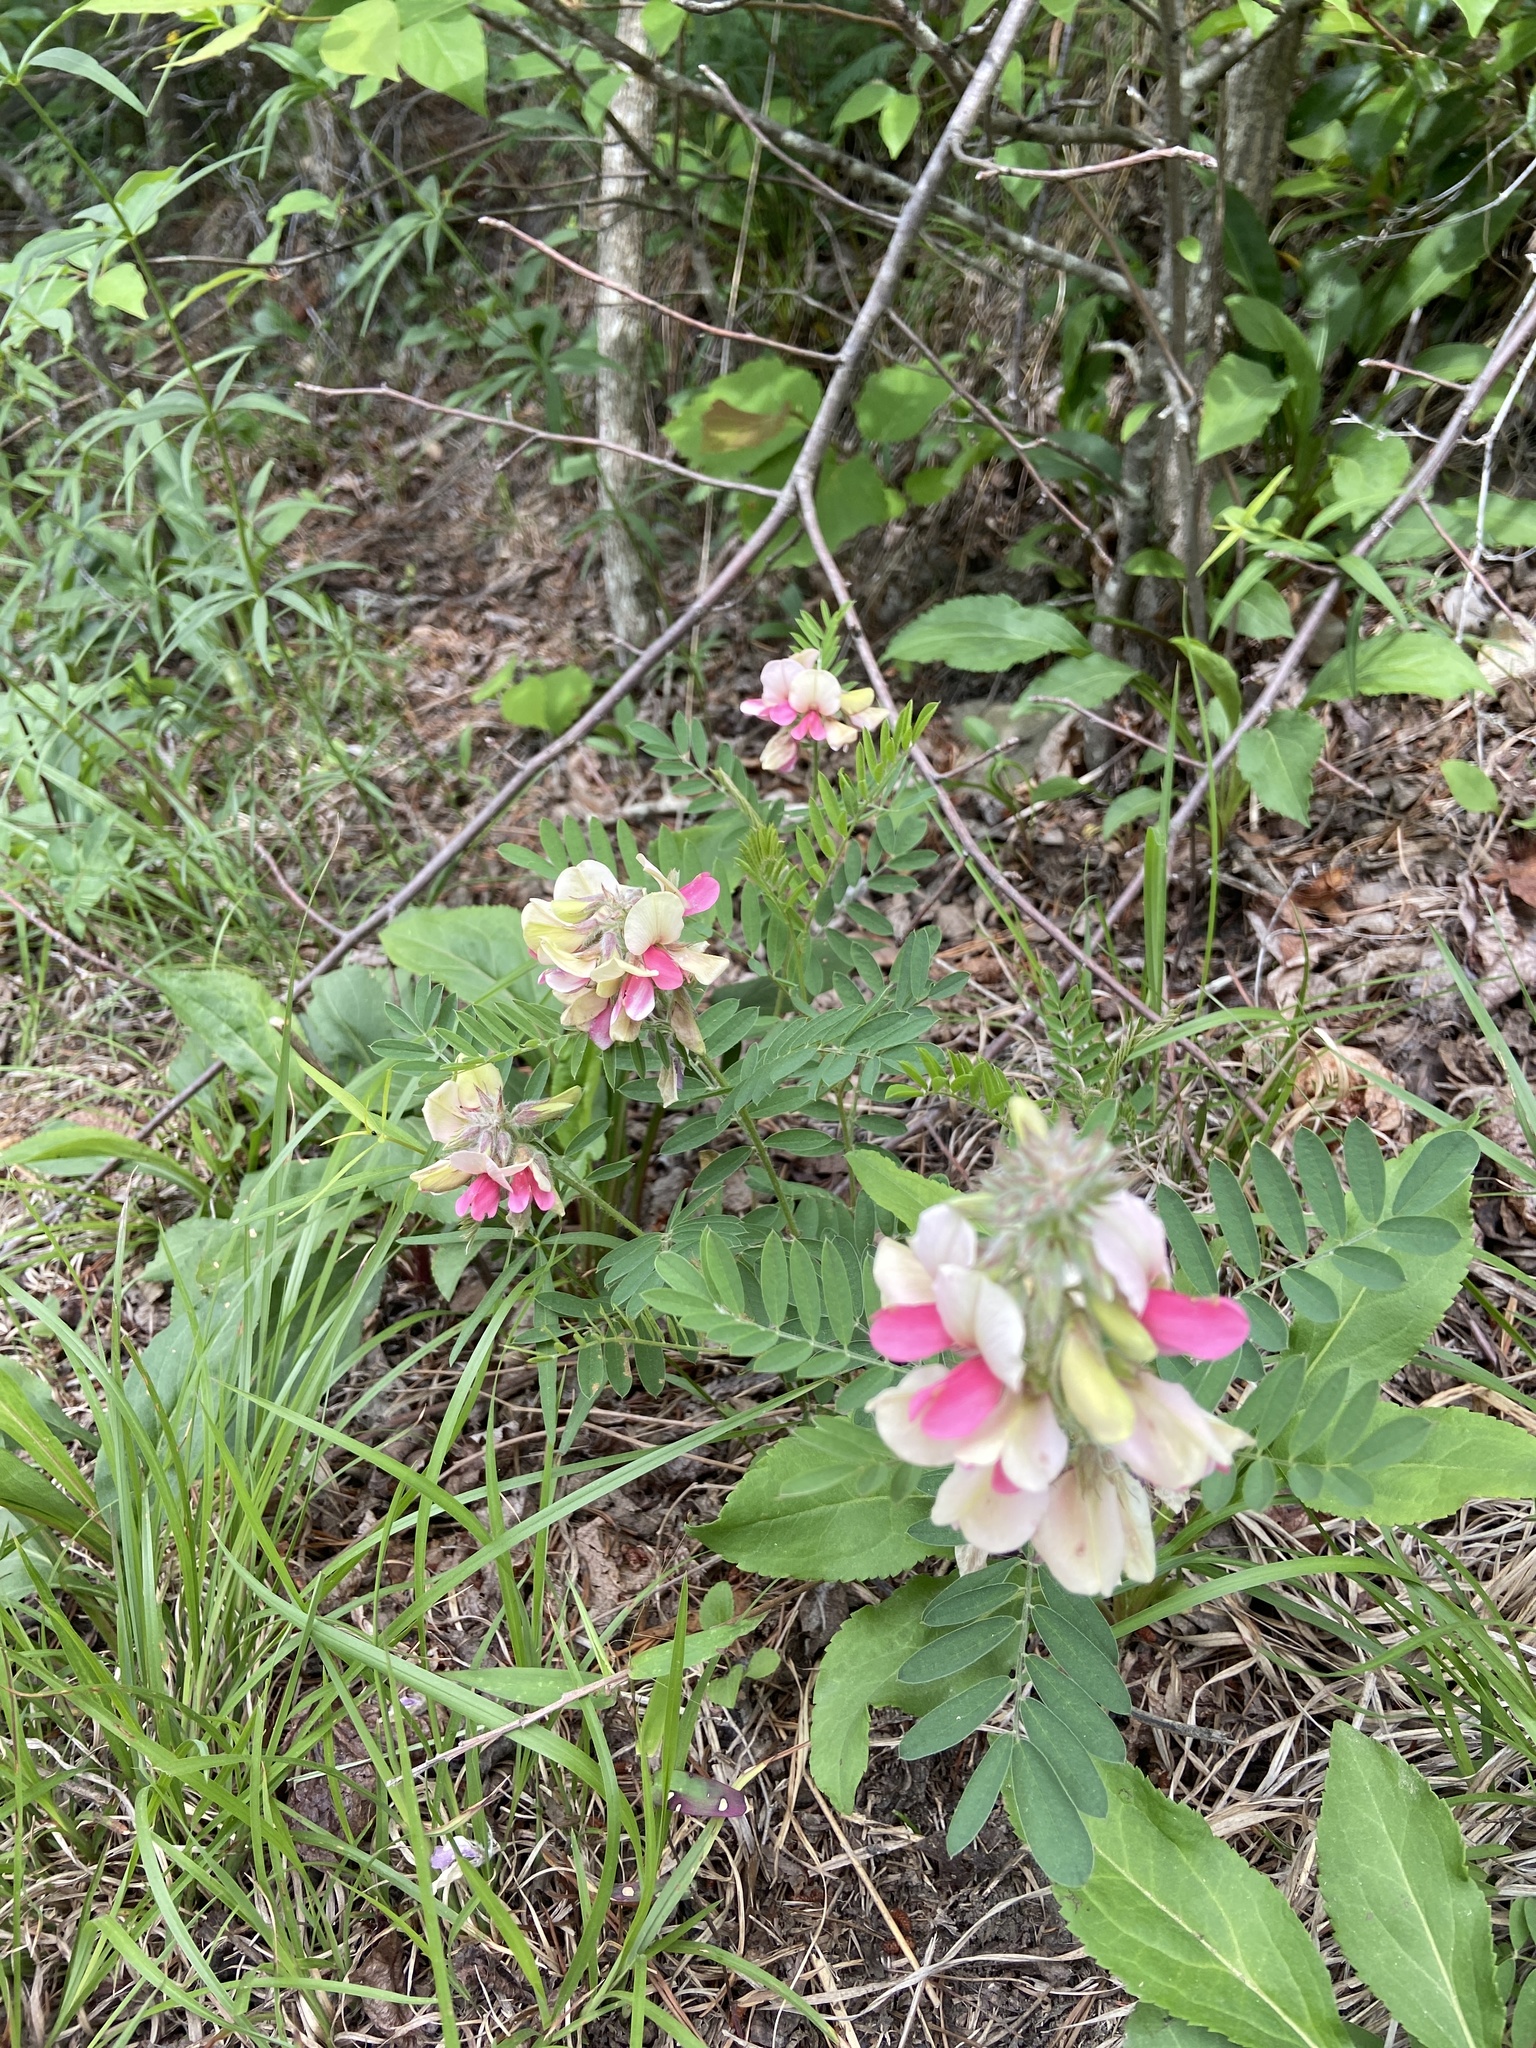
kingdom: Plantae
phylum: Tracheophyta
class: Magnoliopsida
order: Fabales
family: Fabaceae
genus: Tephrosia
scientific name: Tephrosia virginiana
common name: Rabbit-pea
